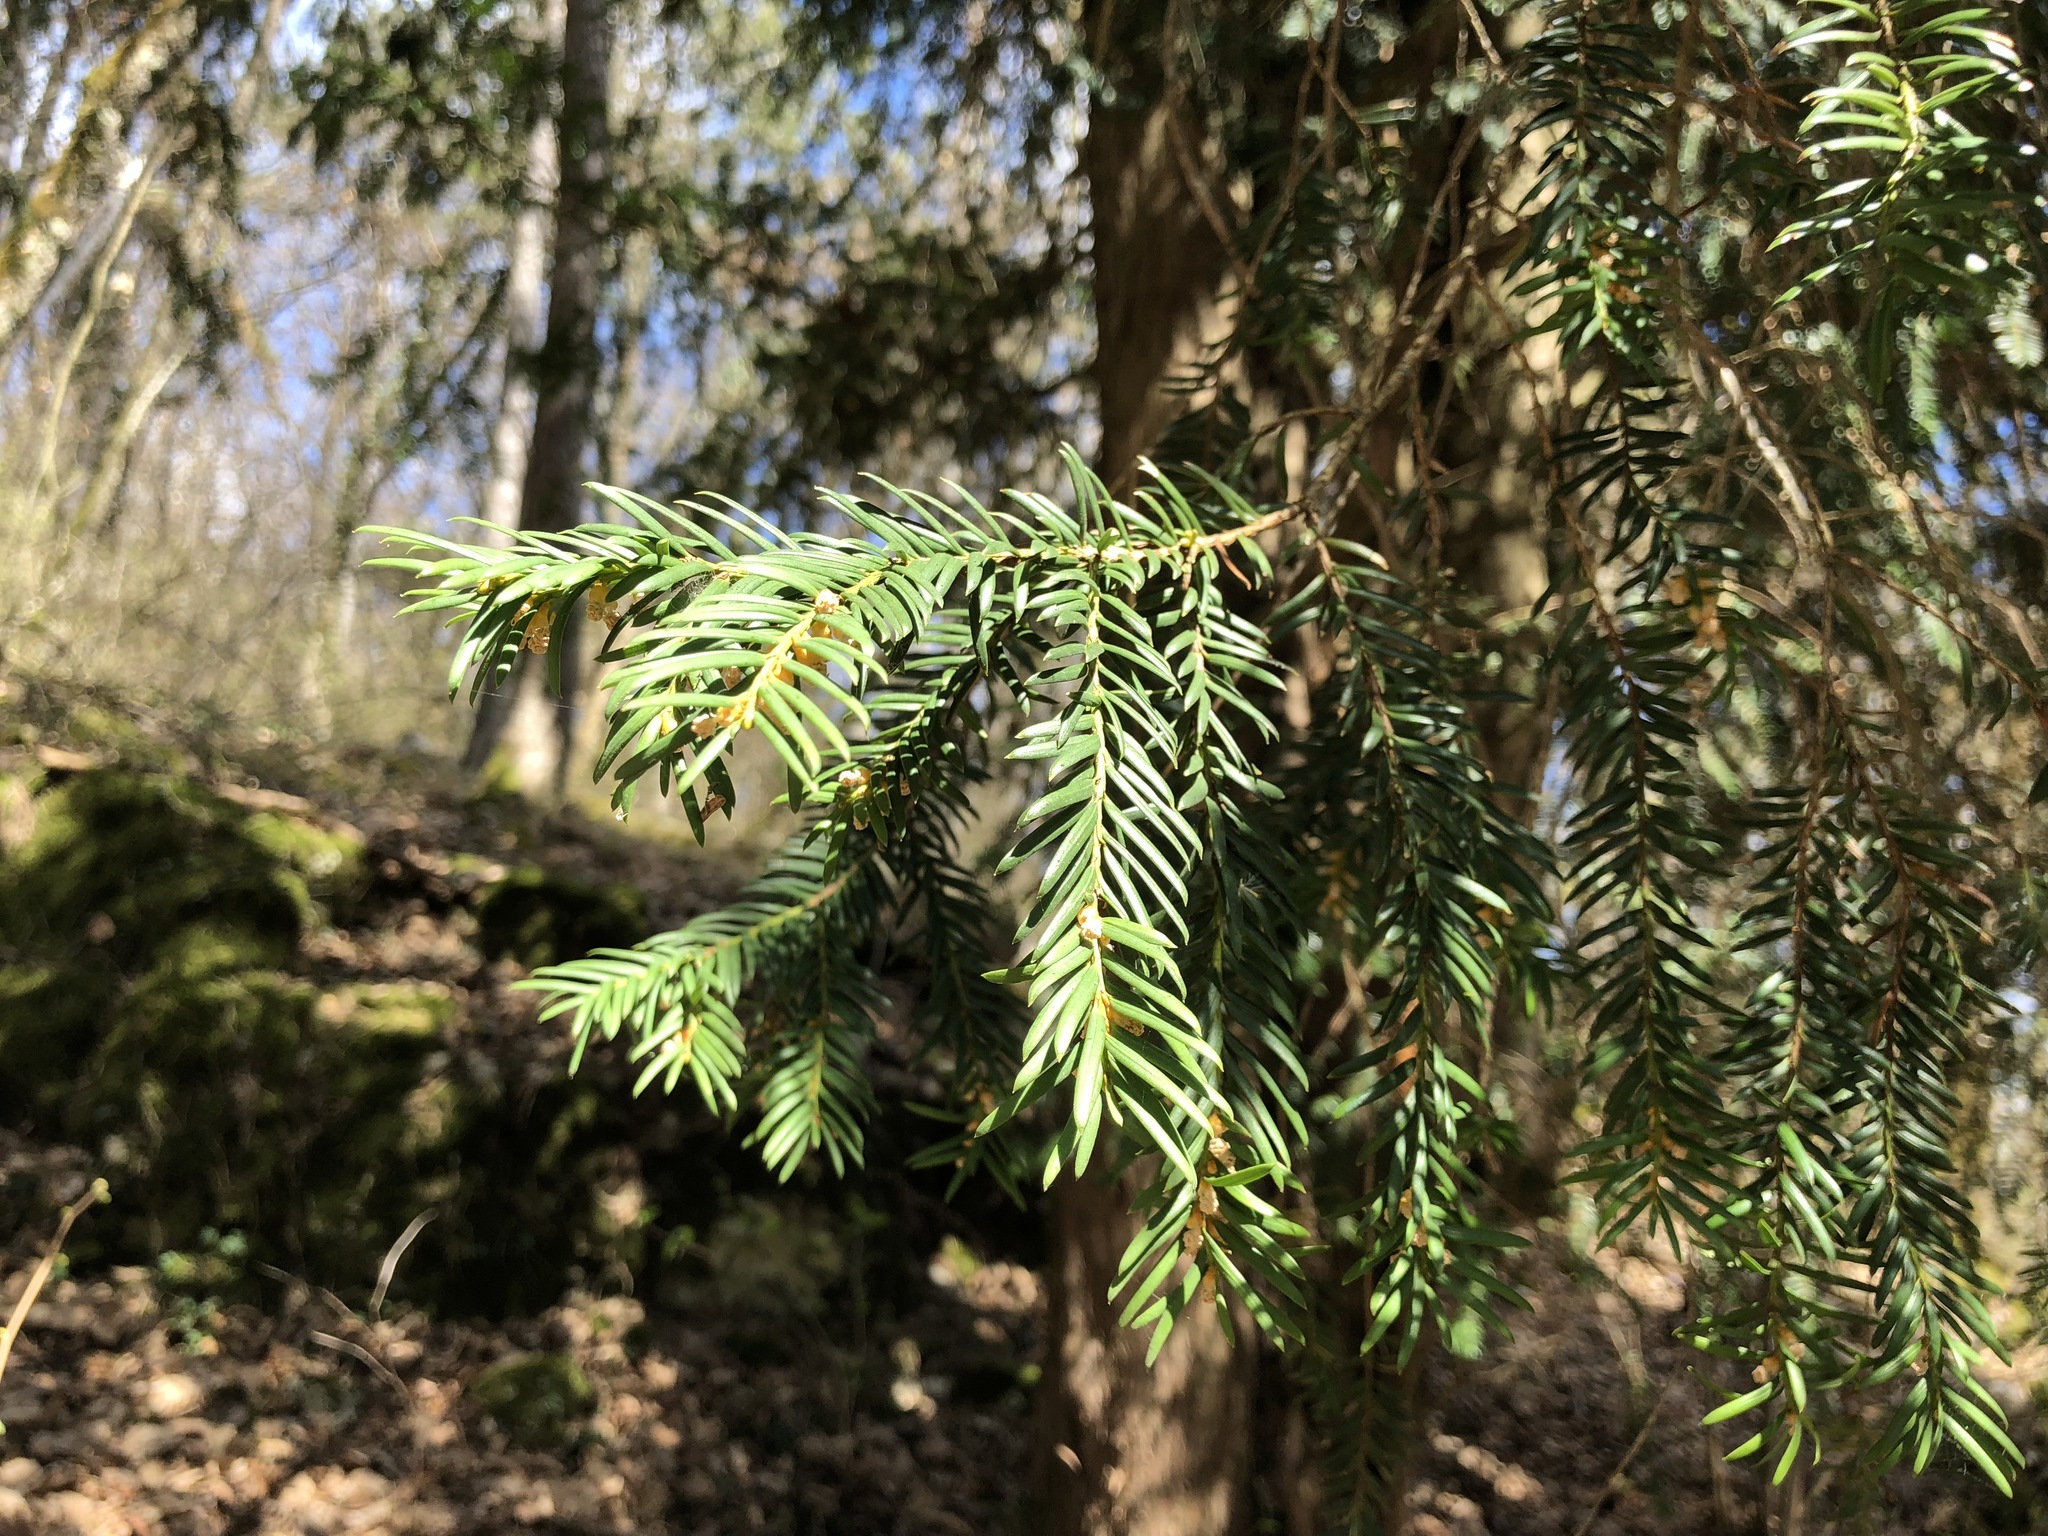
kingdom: Plantae
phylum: Tracheophyta
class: Pinopsida
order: Pinales
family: Taxaceae
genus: Taxus
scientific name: Taxus baccata
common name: Yew
